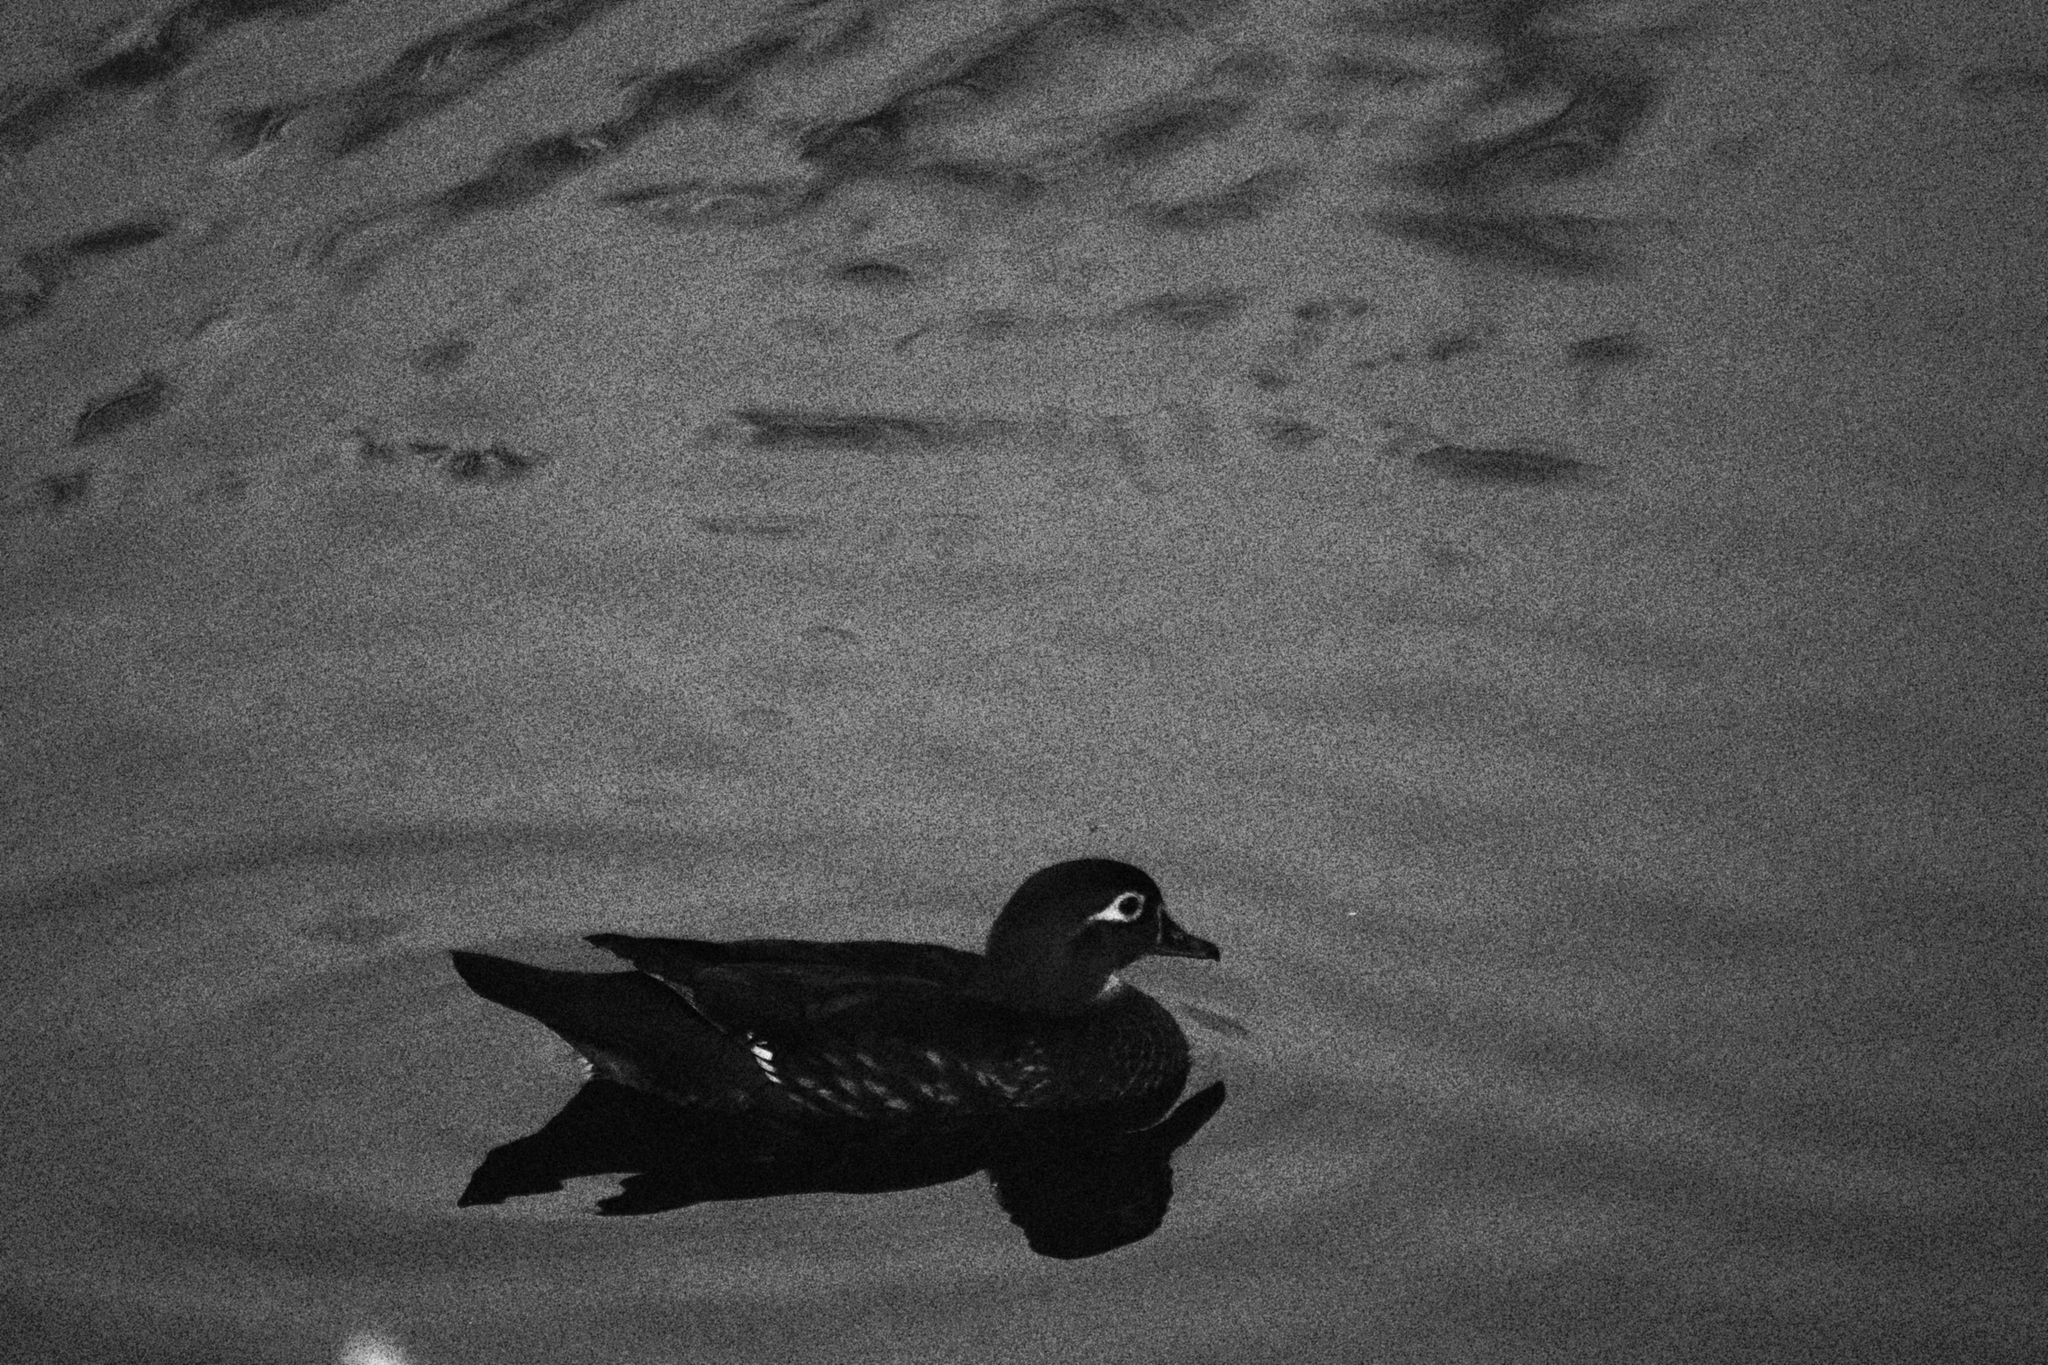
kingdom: Animalia
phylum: Chordata
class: Aves
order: Anseriformes
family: Anatidae
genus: Aix
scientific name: Aix sponsa
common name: Wood duck
